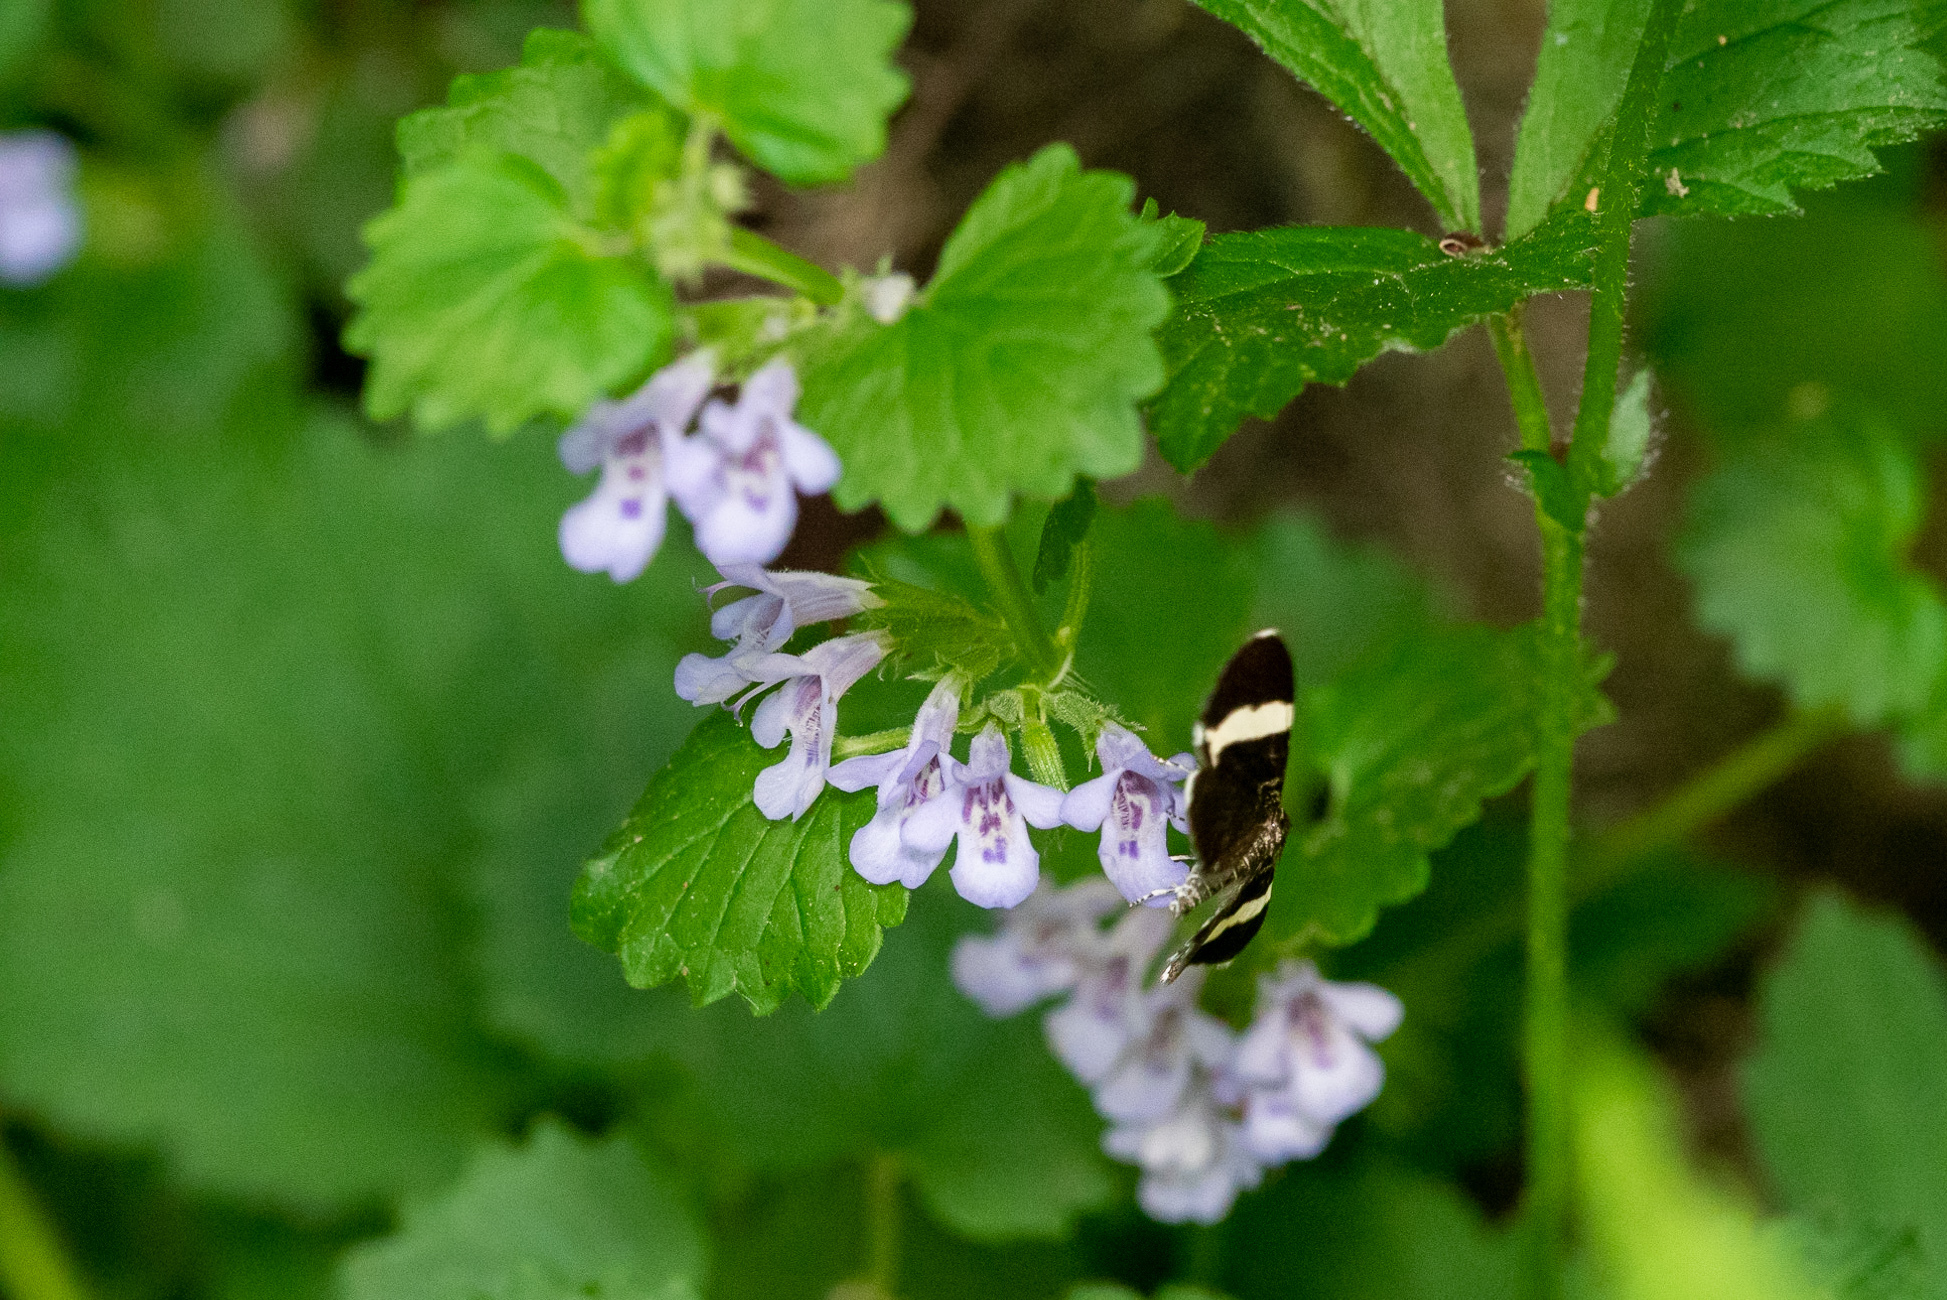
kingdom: Plantae
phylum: Tracheophyta
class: Magnoliopsida
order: Lamiales
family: Lamiaceae
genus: Glechoma
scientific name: Glechoma hederacea
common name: Ground ivy
